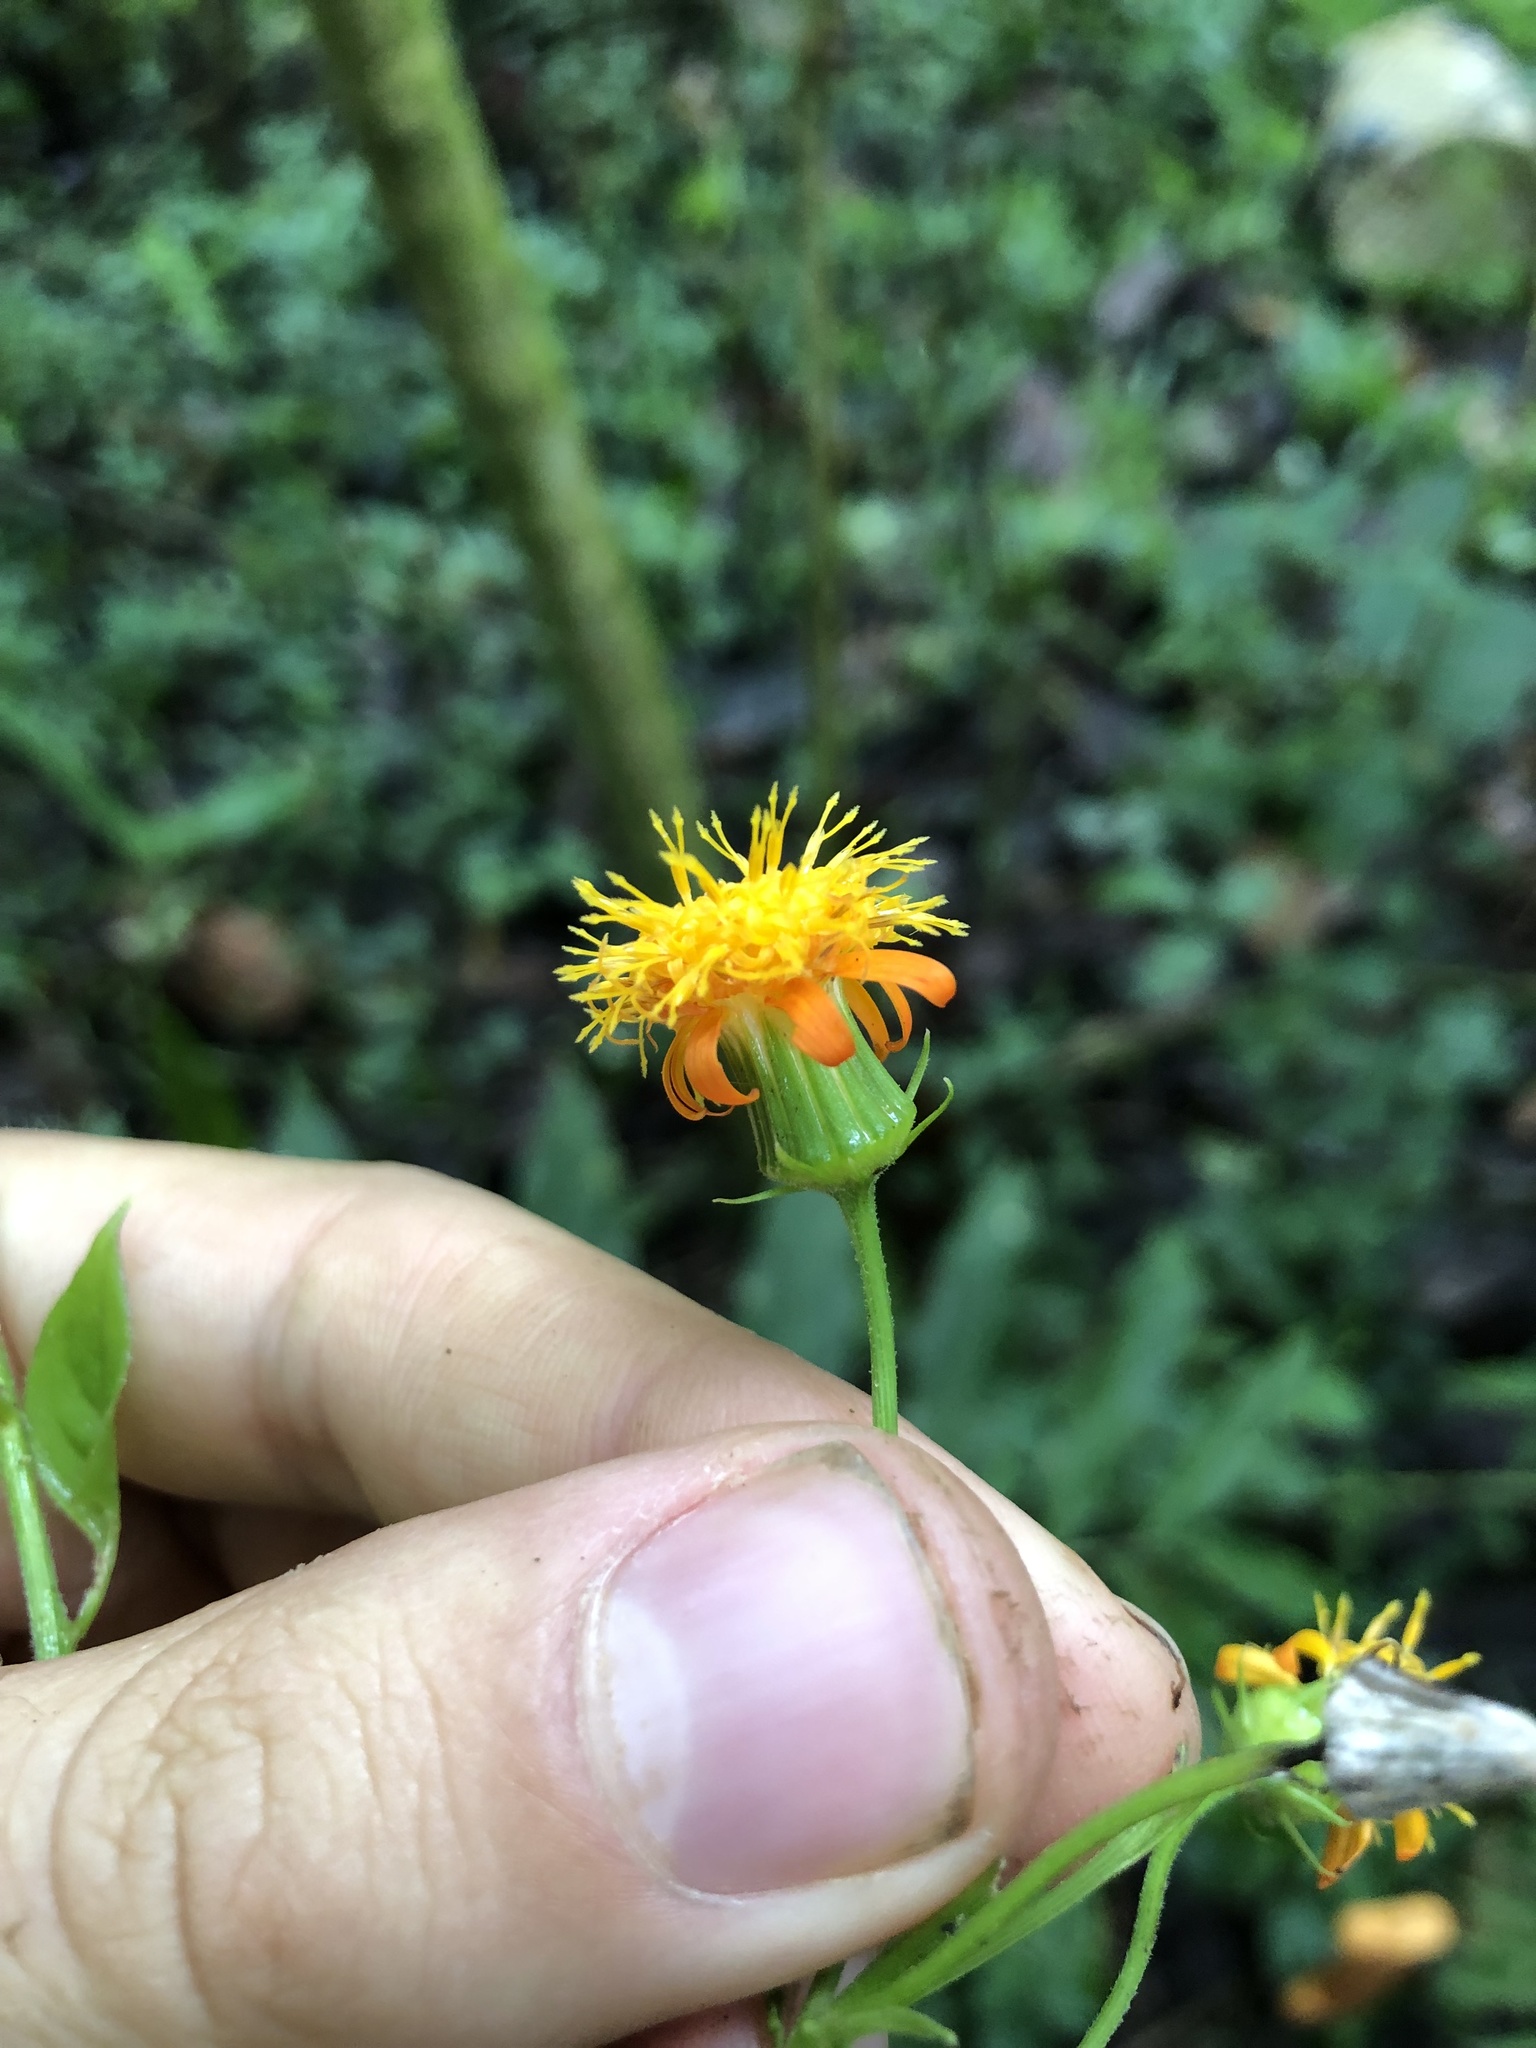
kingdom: Plantae
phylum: Tracheophyta
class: Magnoliopsida
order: Asterales
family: Asteraceae
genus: Pseudogynoxys
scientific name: Pseudogynoxys engleri
